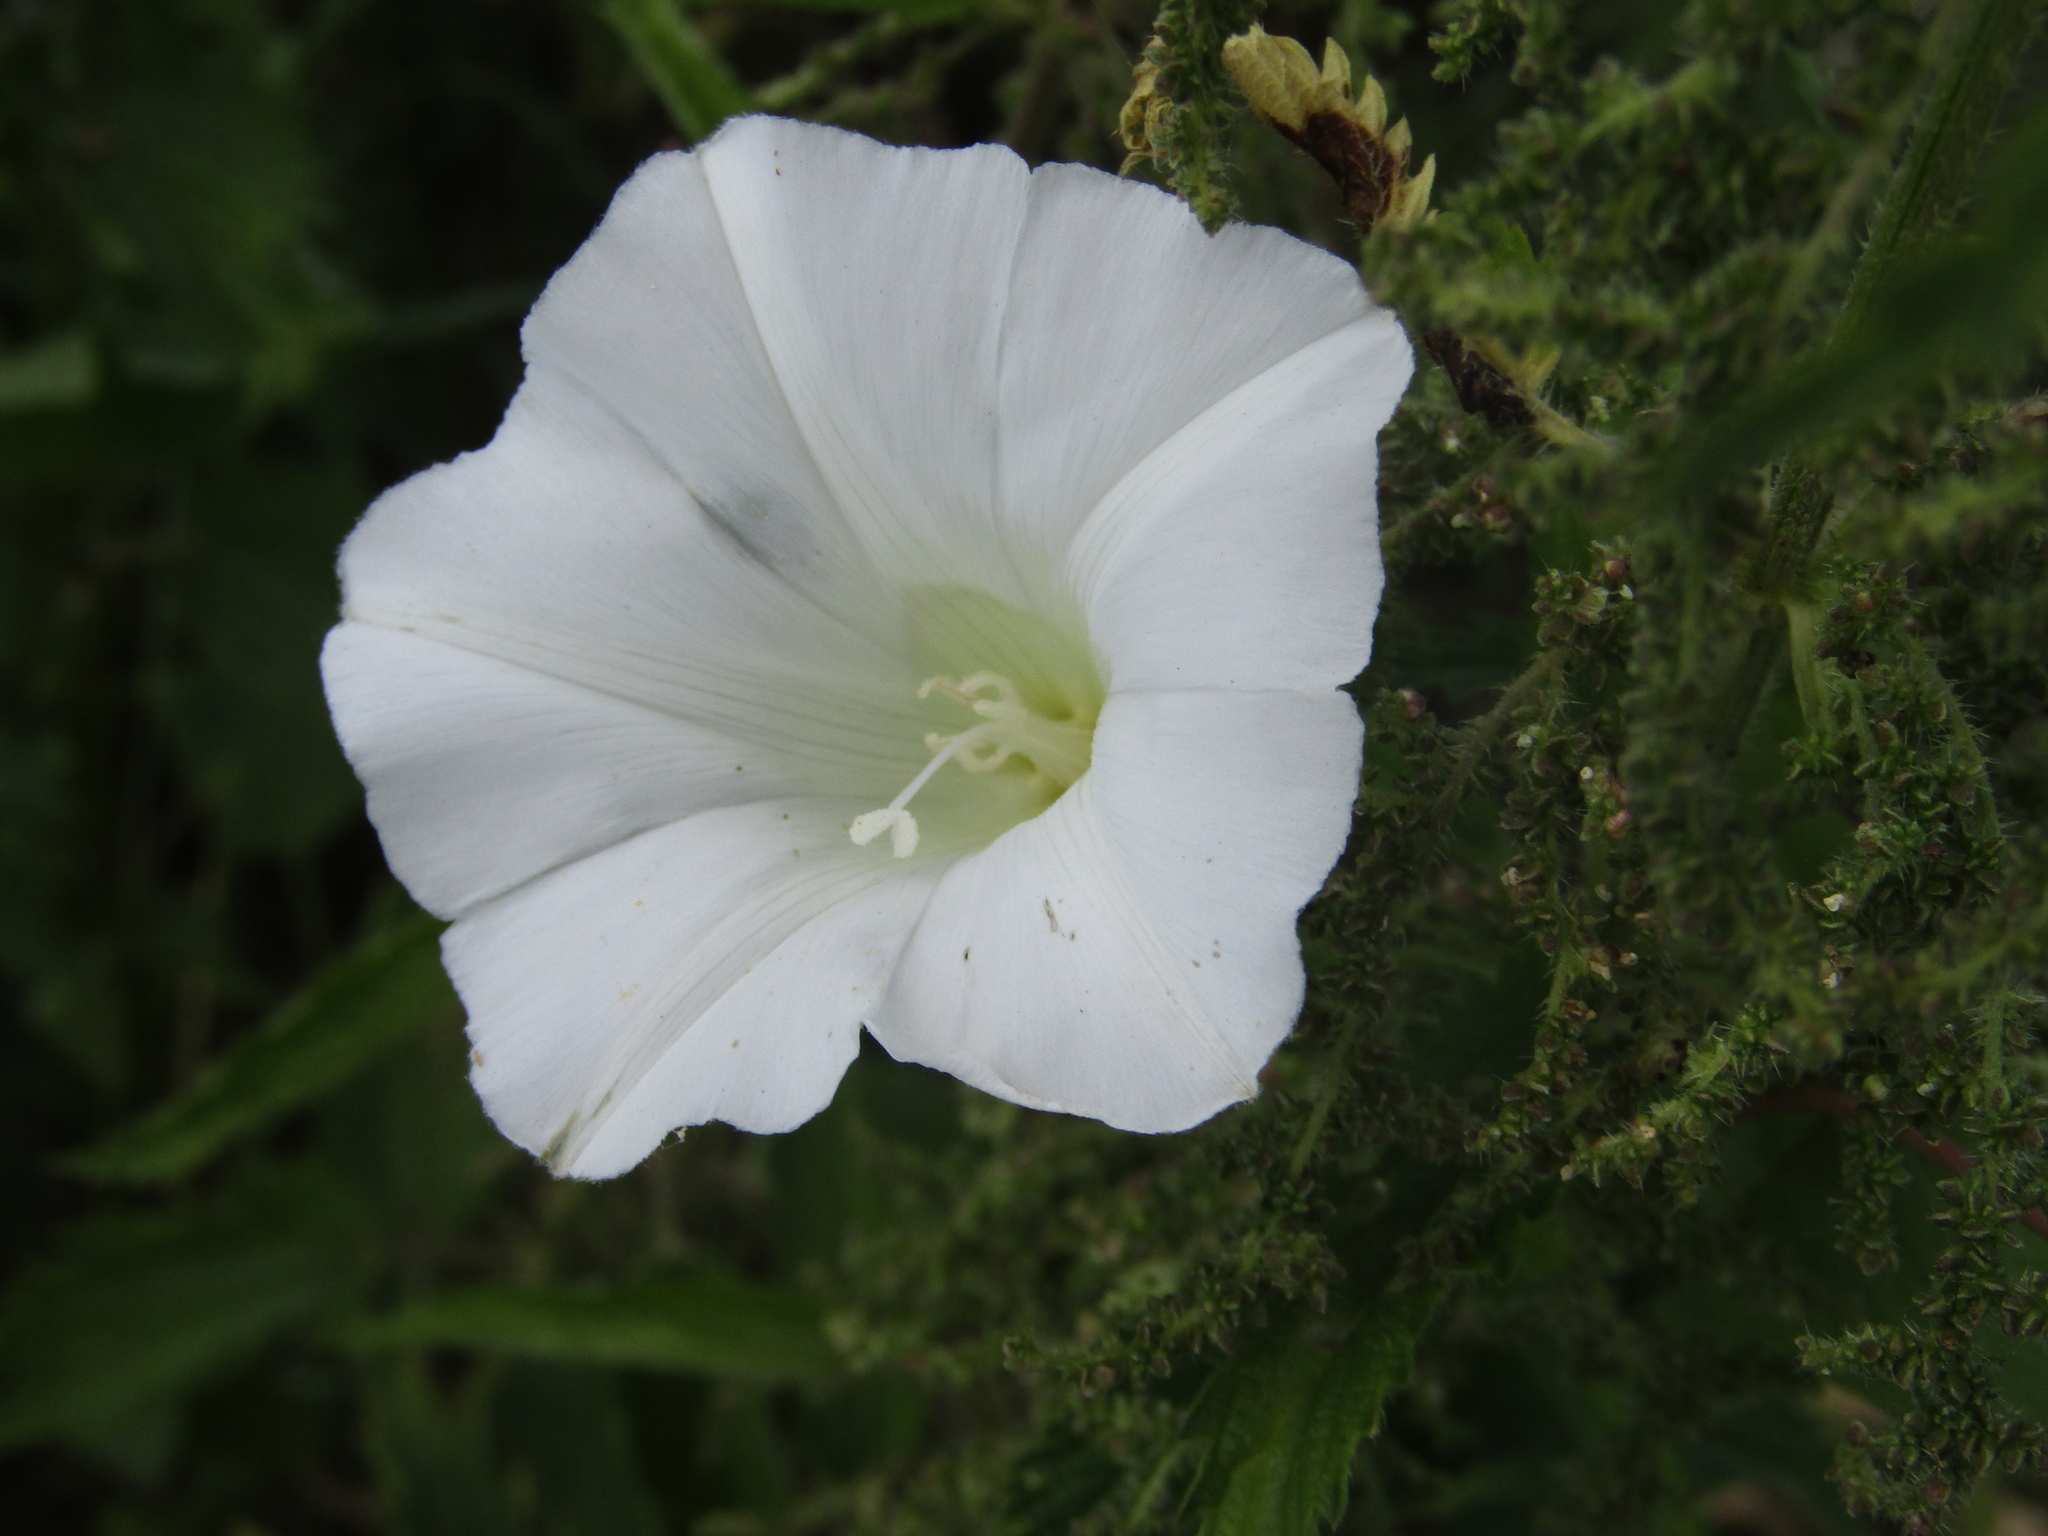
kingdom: Plantae
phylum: Tracheophyta
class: Magnoliopsida
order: Solanales
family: Convolvulaceae
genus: Calystegia
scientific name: Calystegia sepium
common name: Hedge bindweed
